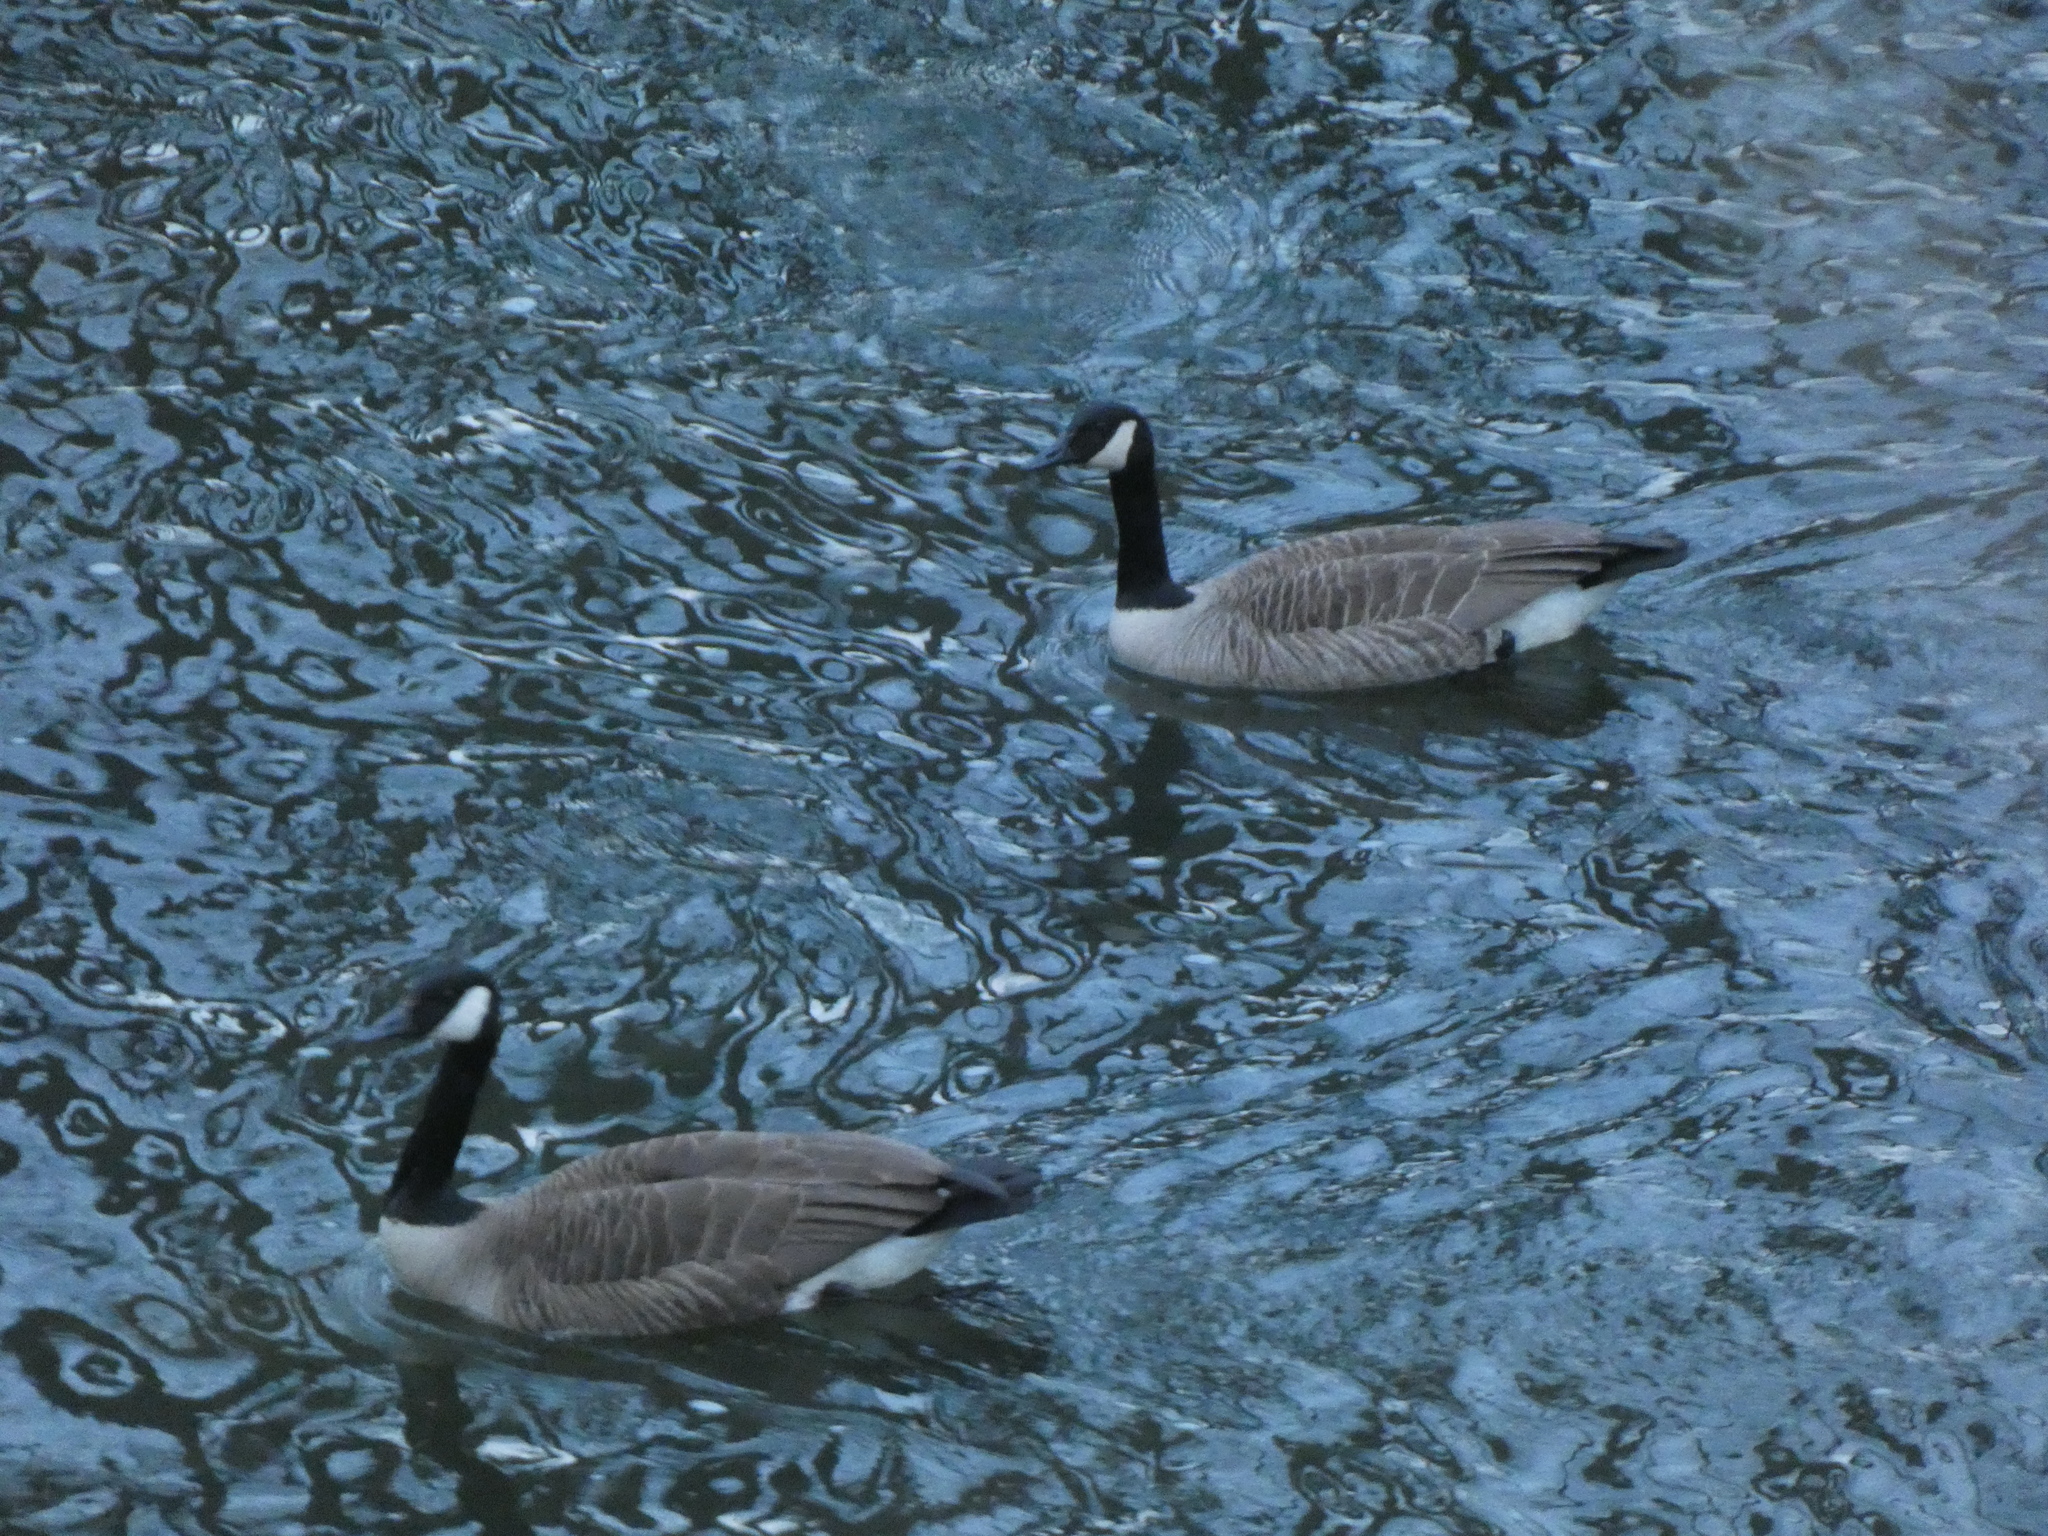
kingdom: Animalia
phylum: Chordata
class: Aves
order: Anseriformes
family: Anatidae
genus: Branta
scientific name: Branta canadensis
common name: Canada goose
